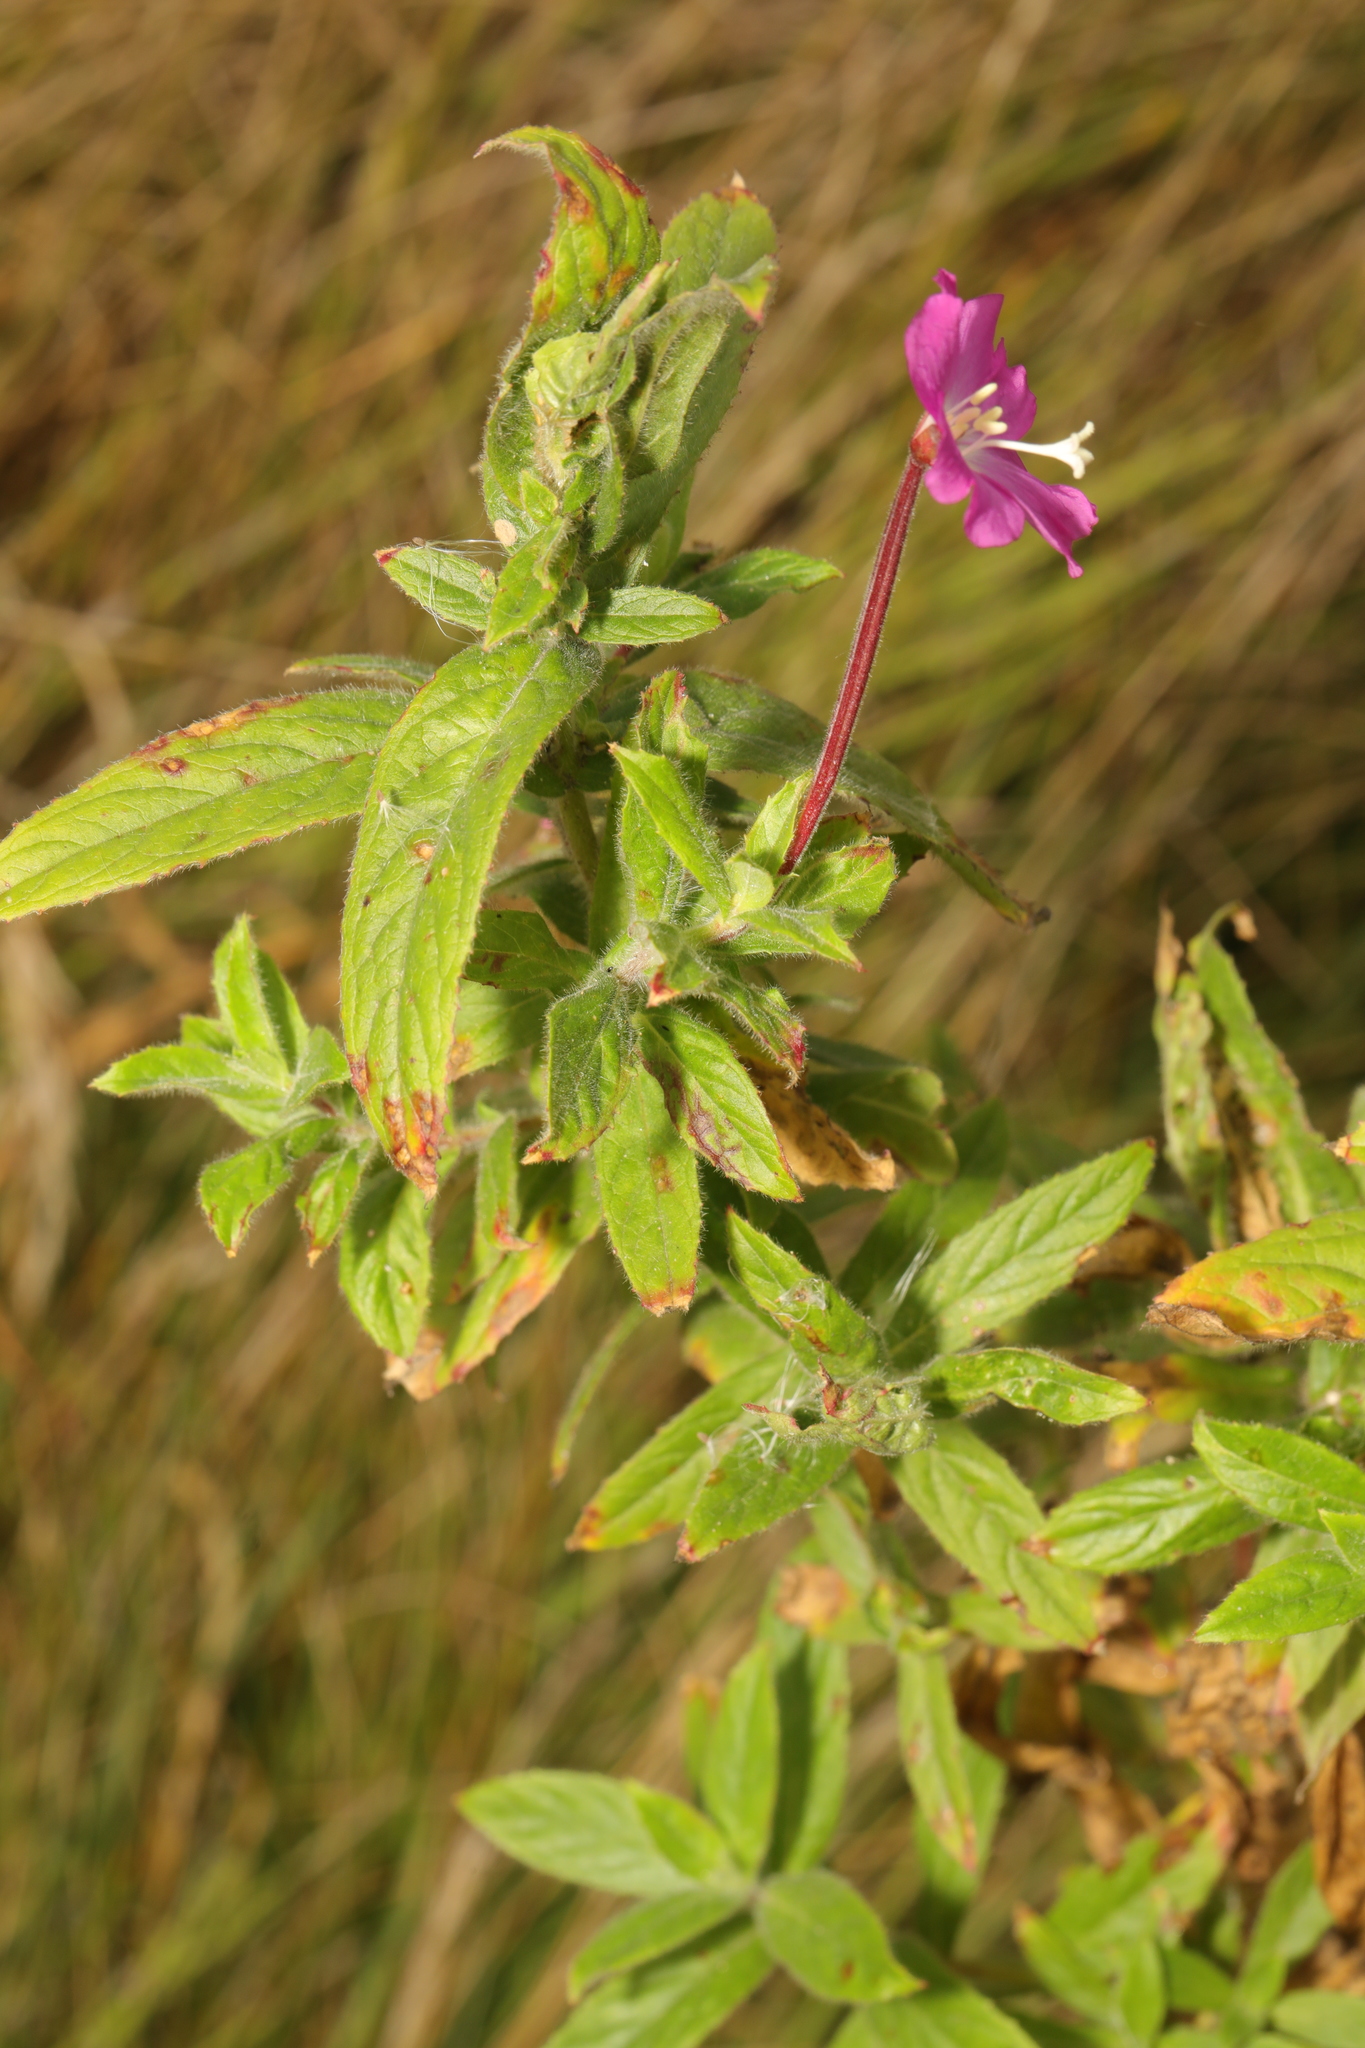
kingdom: Plantae
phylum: Tracheophyta
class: Magnoliopsida
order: Myrtales
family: Onagraceae
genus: Epilobium
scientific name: Epilobium hirsutum
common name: Great willowherb
